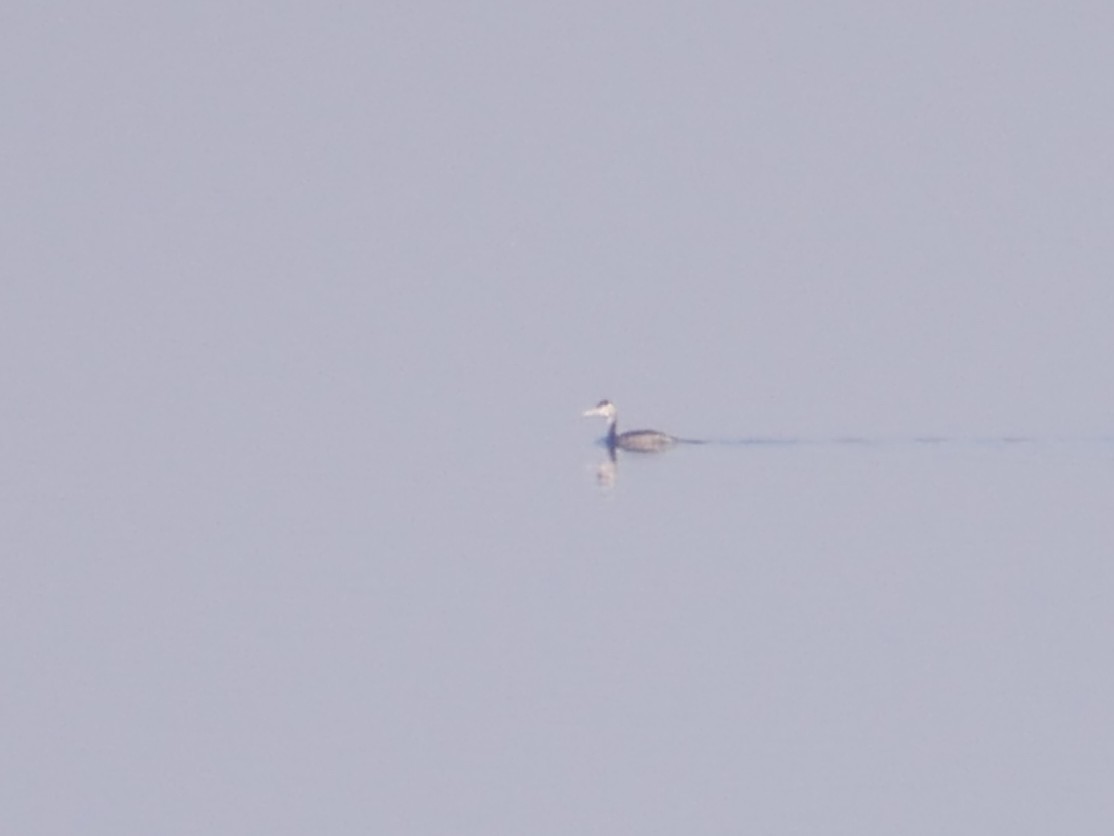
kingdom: Animalia
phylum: Chordata
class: Aves
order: Podicipediformes
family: Podicipedidae
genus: Podiceps
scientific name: Podiceps cristatus
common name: Great crested grebe
